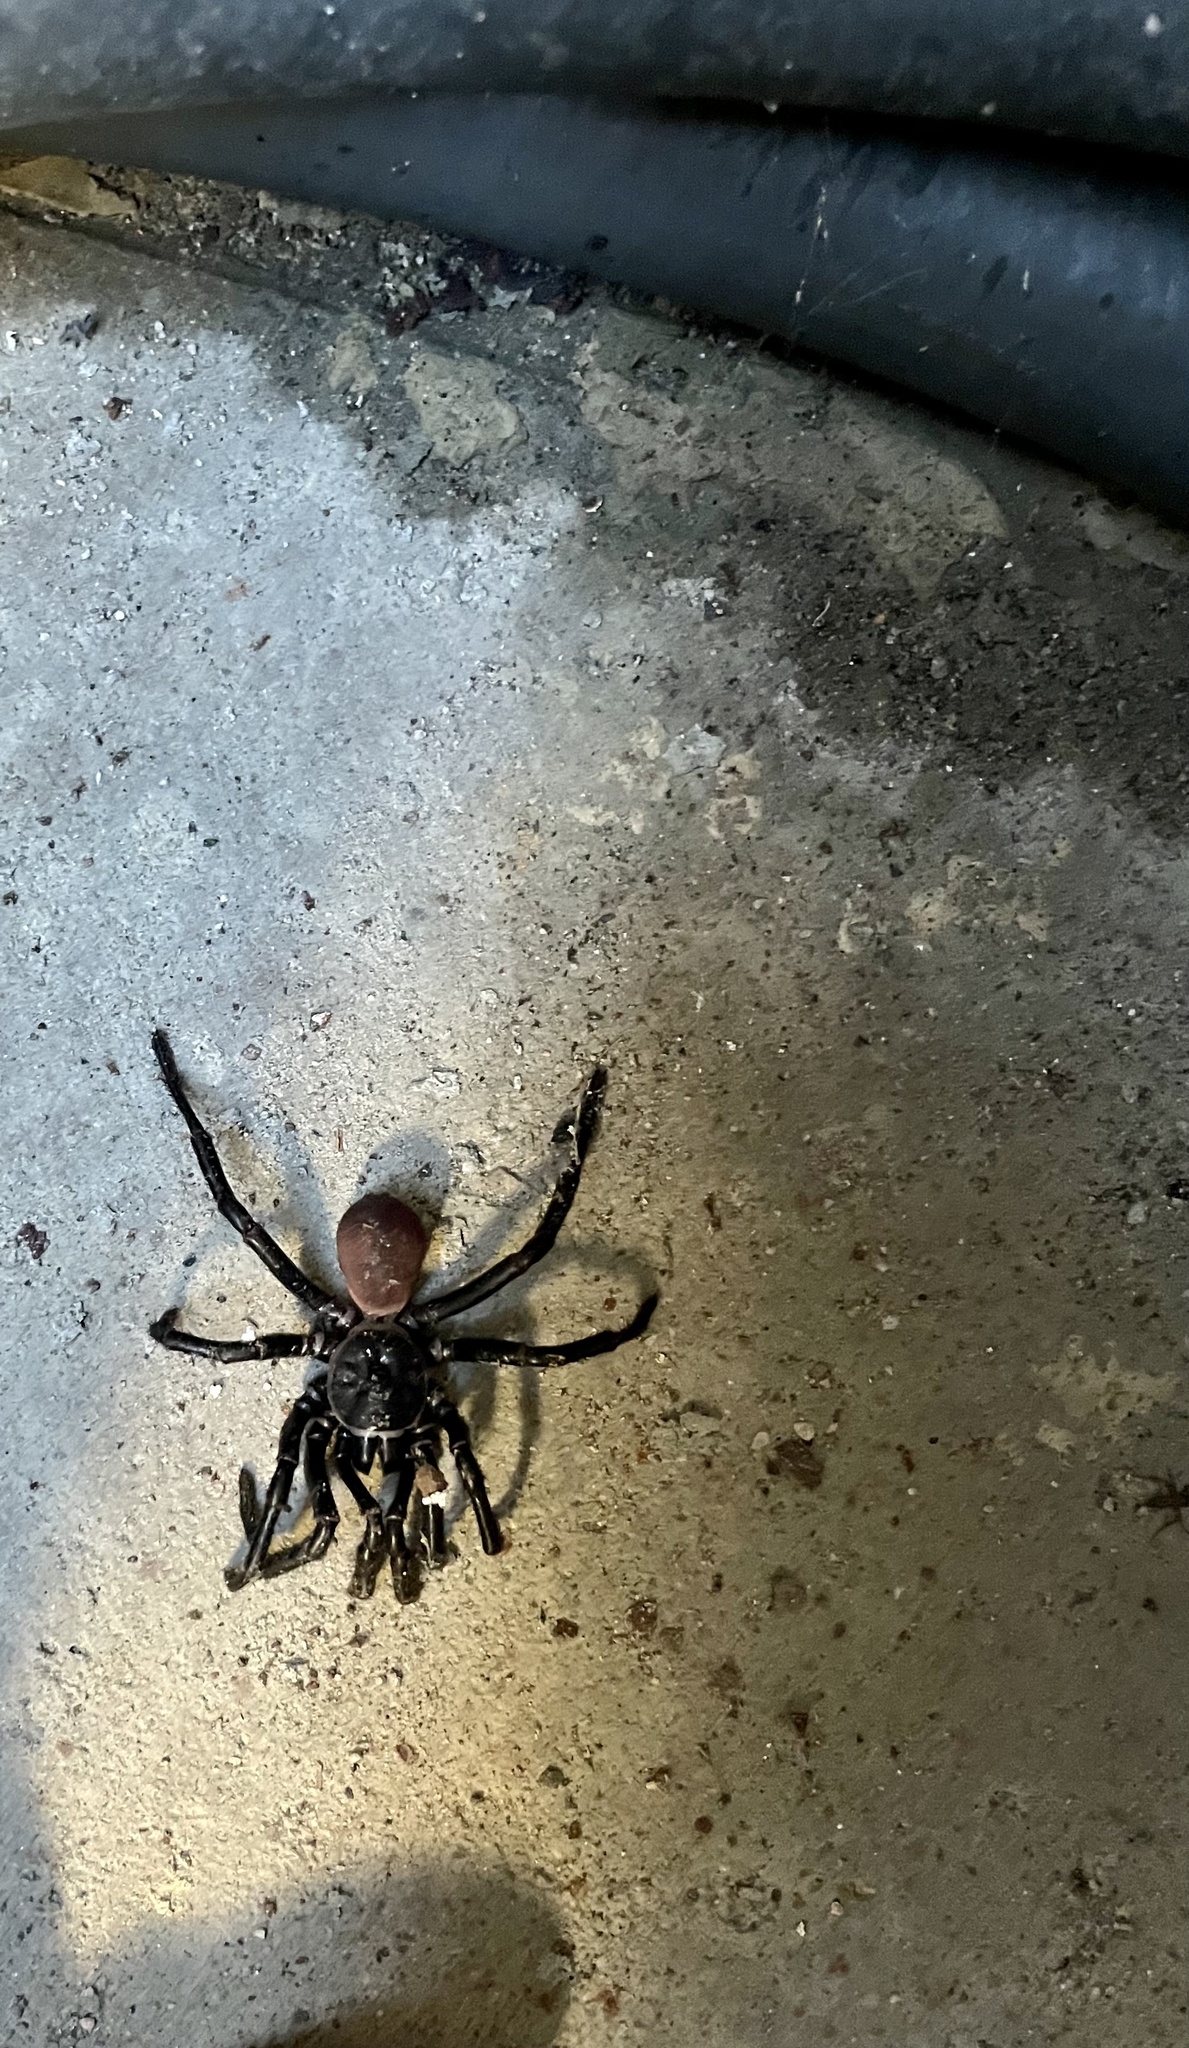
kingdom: Animalia
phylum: Arthropoda
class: Arachnida
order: Araneae
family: Halonoproctidae
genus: Bothriocyrtum
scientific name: Bothriocyrtum californicum
